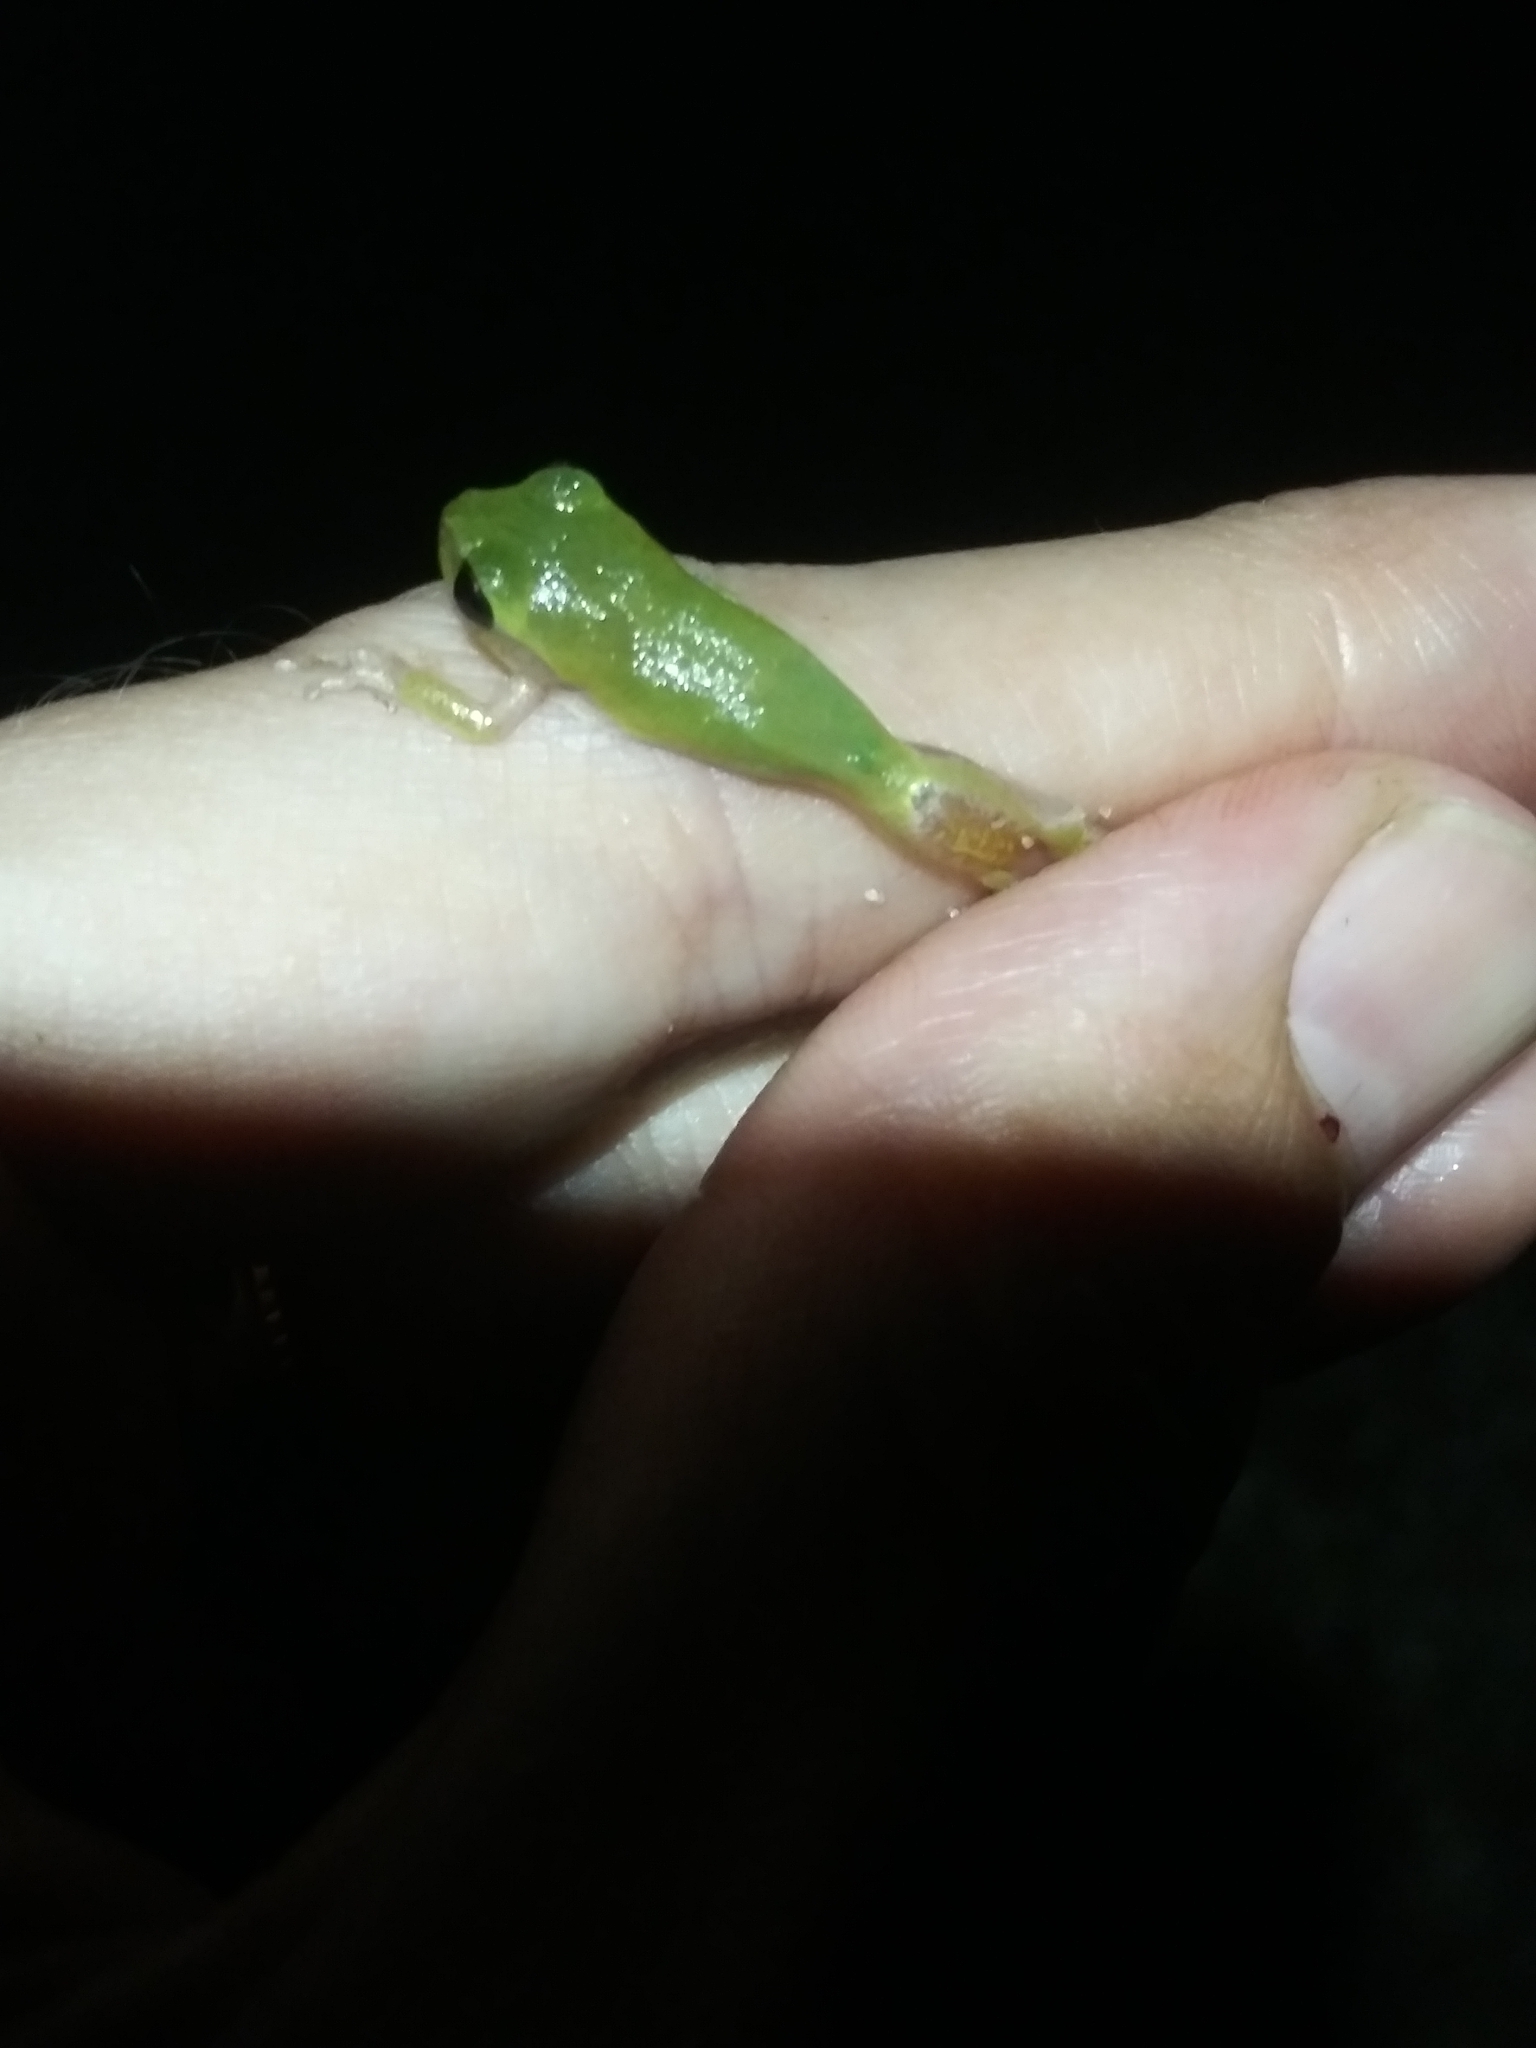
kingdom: Animalia
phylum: Chordata
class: Amphibia
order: Anura
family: Hylidae
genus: Hyla
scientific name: Hyla femoralis
